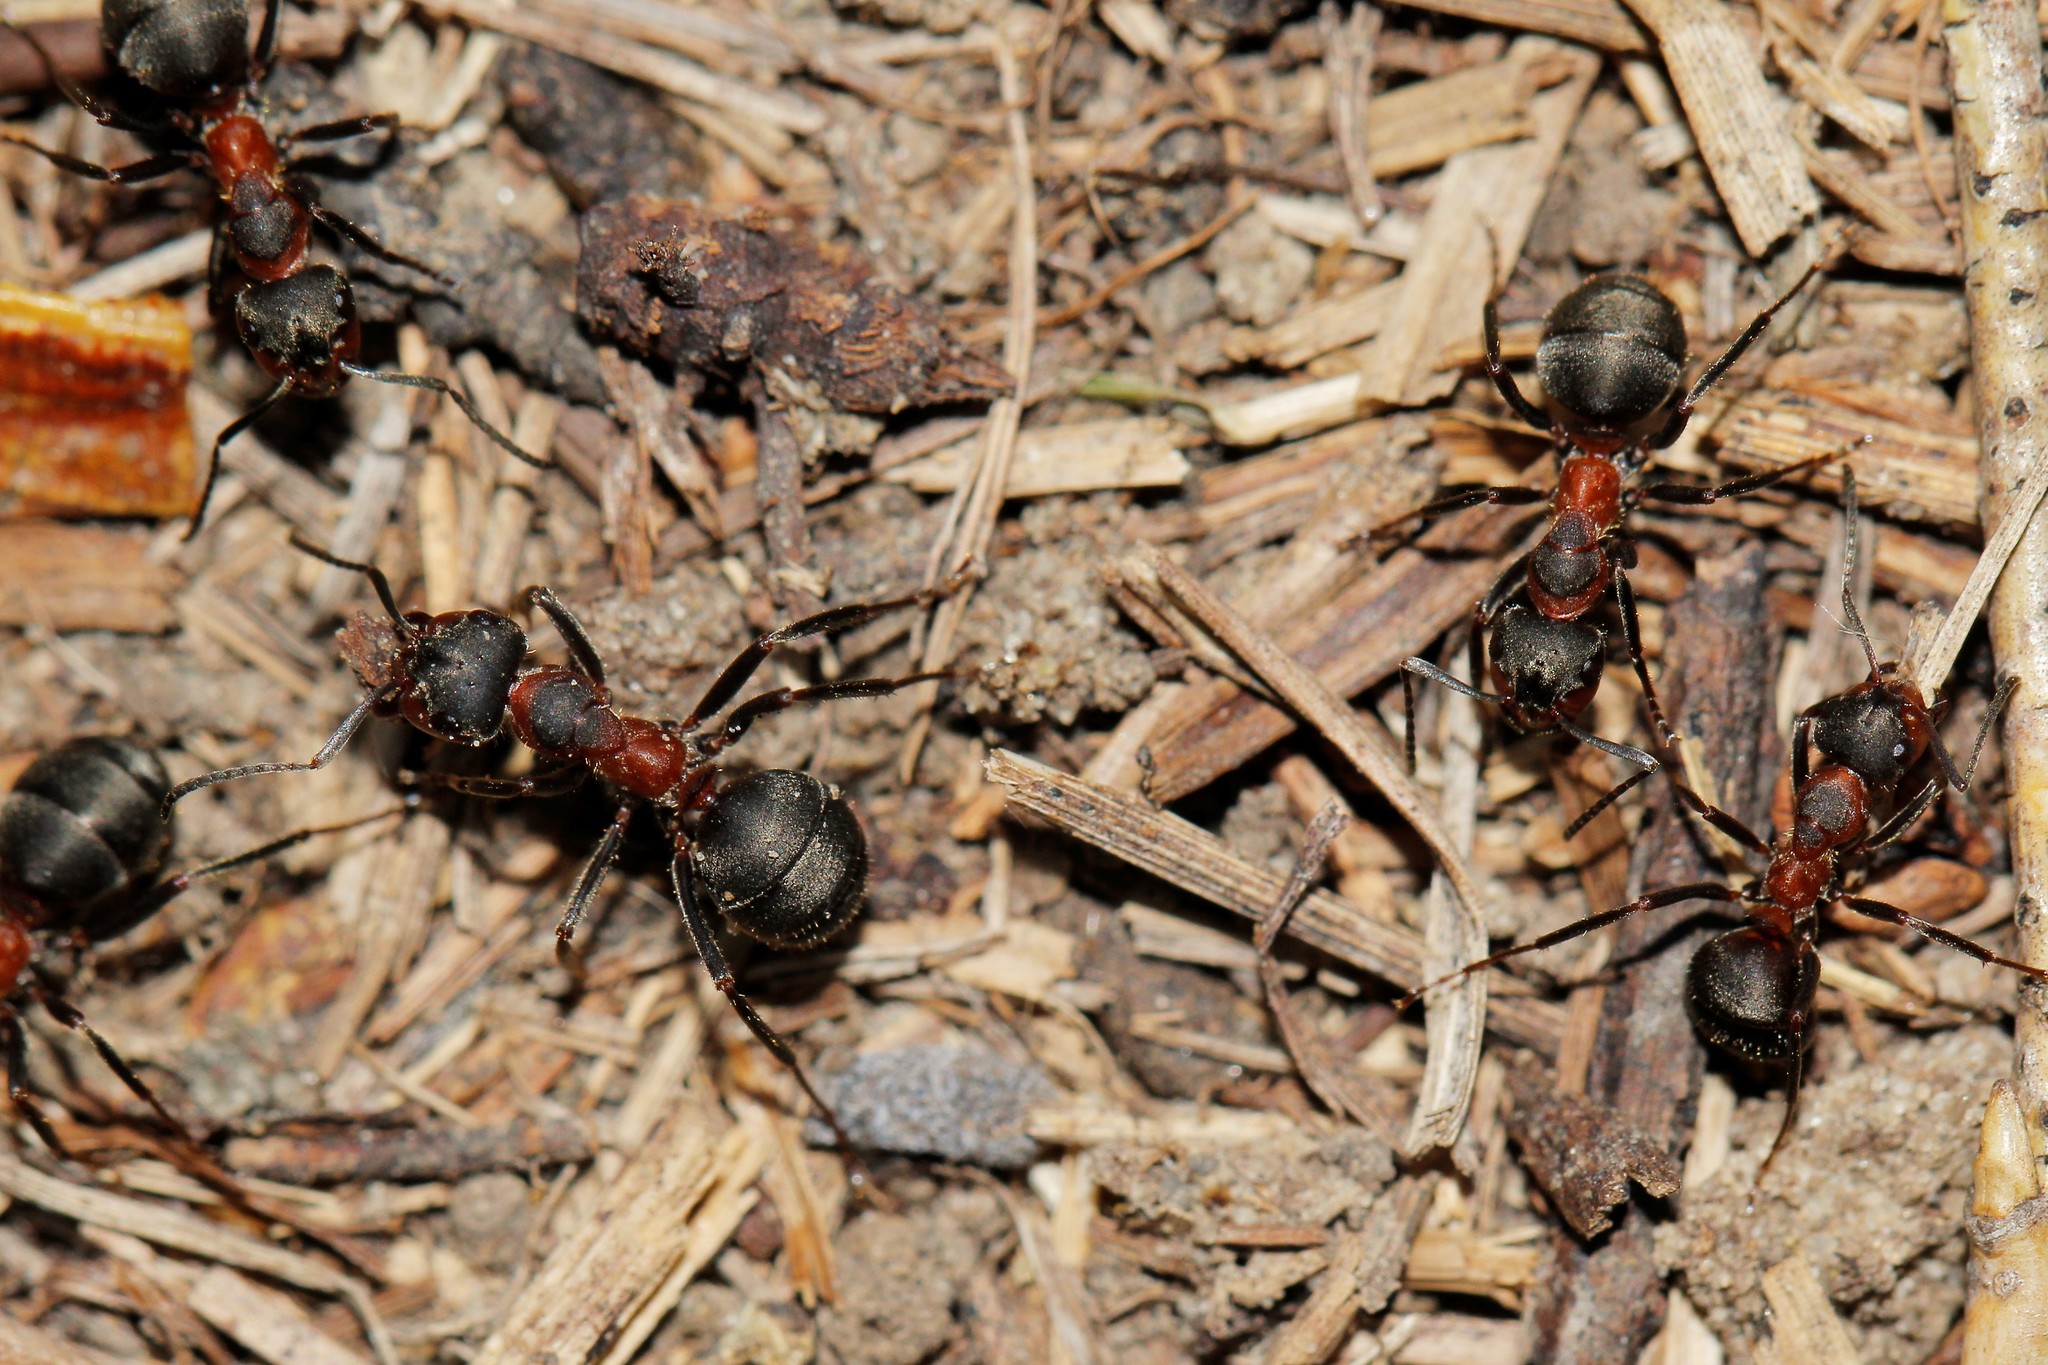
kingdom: Animalia
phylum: Arthropoda
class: Insecta
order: Hymenoptera
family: Formicidae
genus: Formica
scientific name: Formica pratensis
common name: European red wood ant
